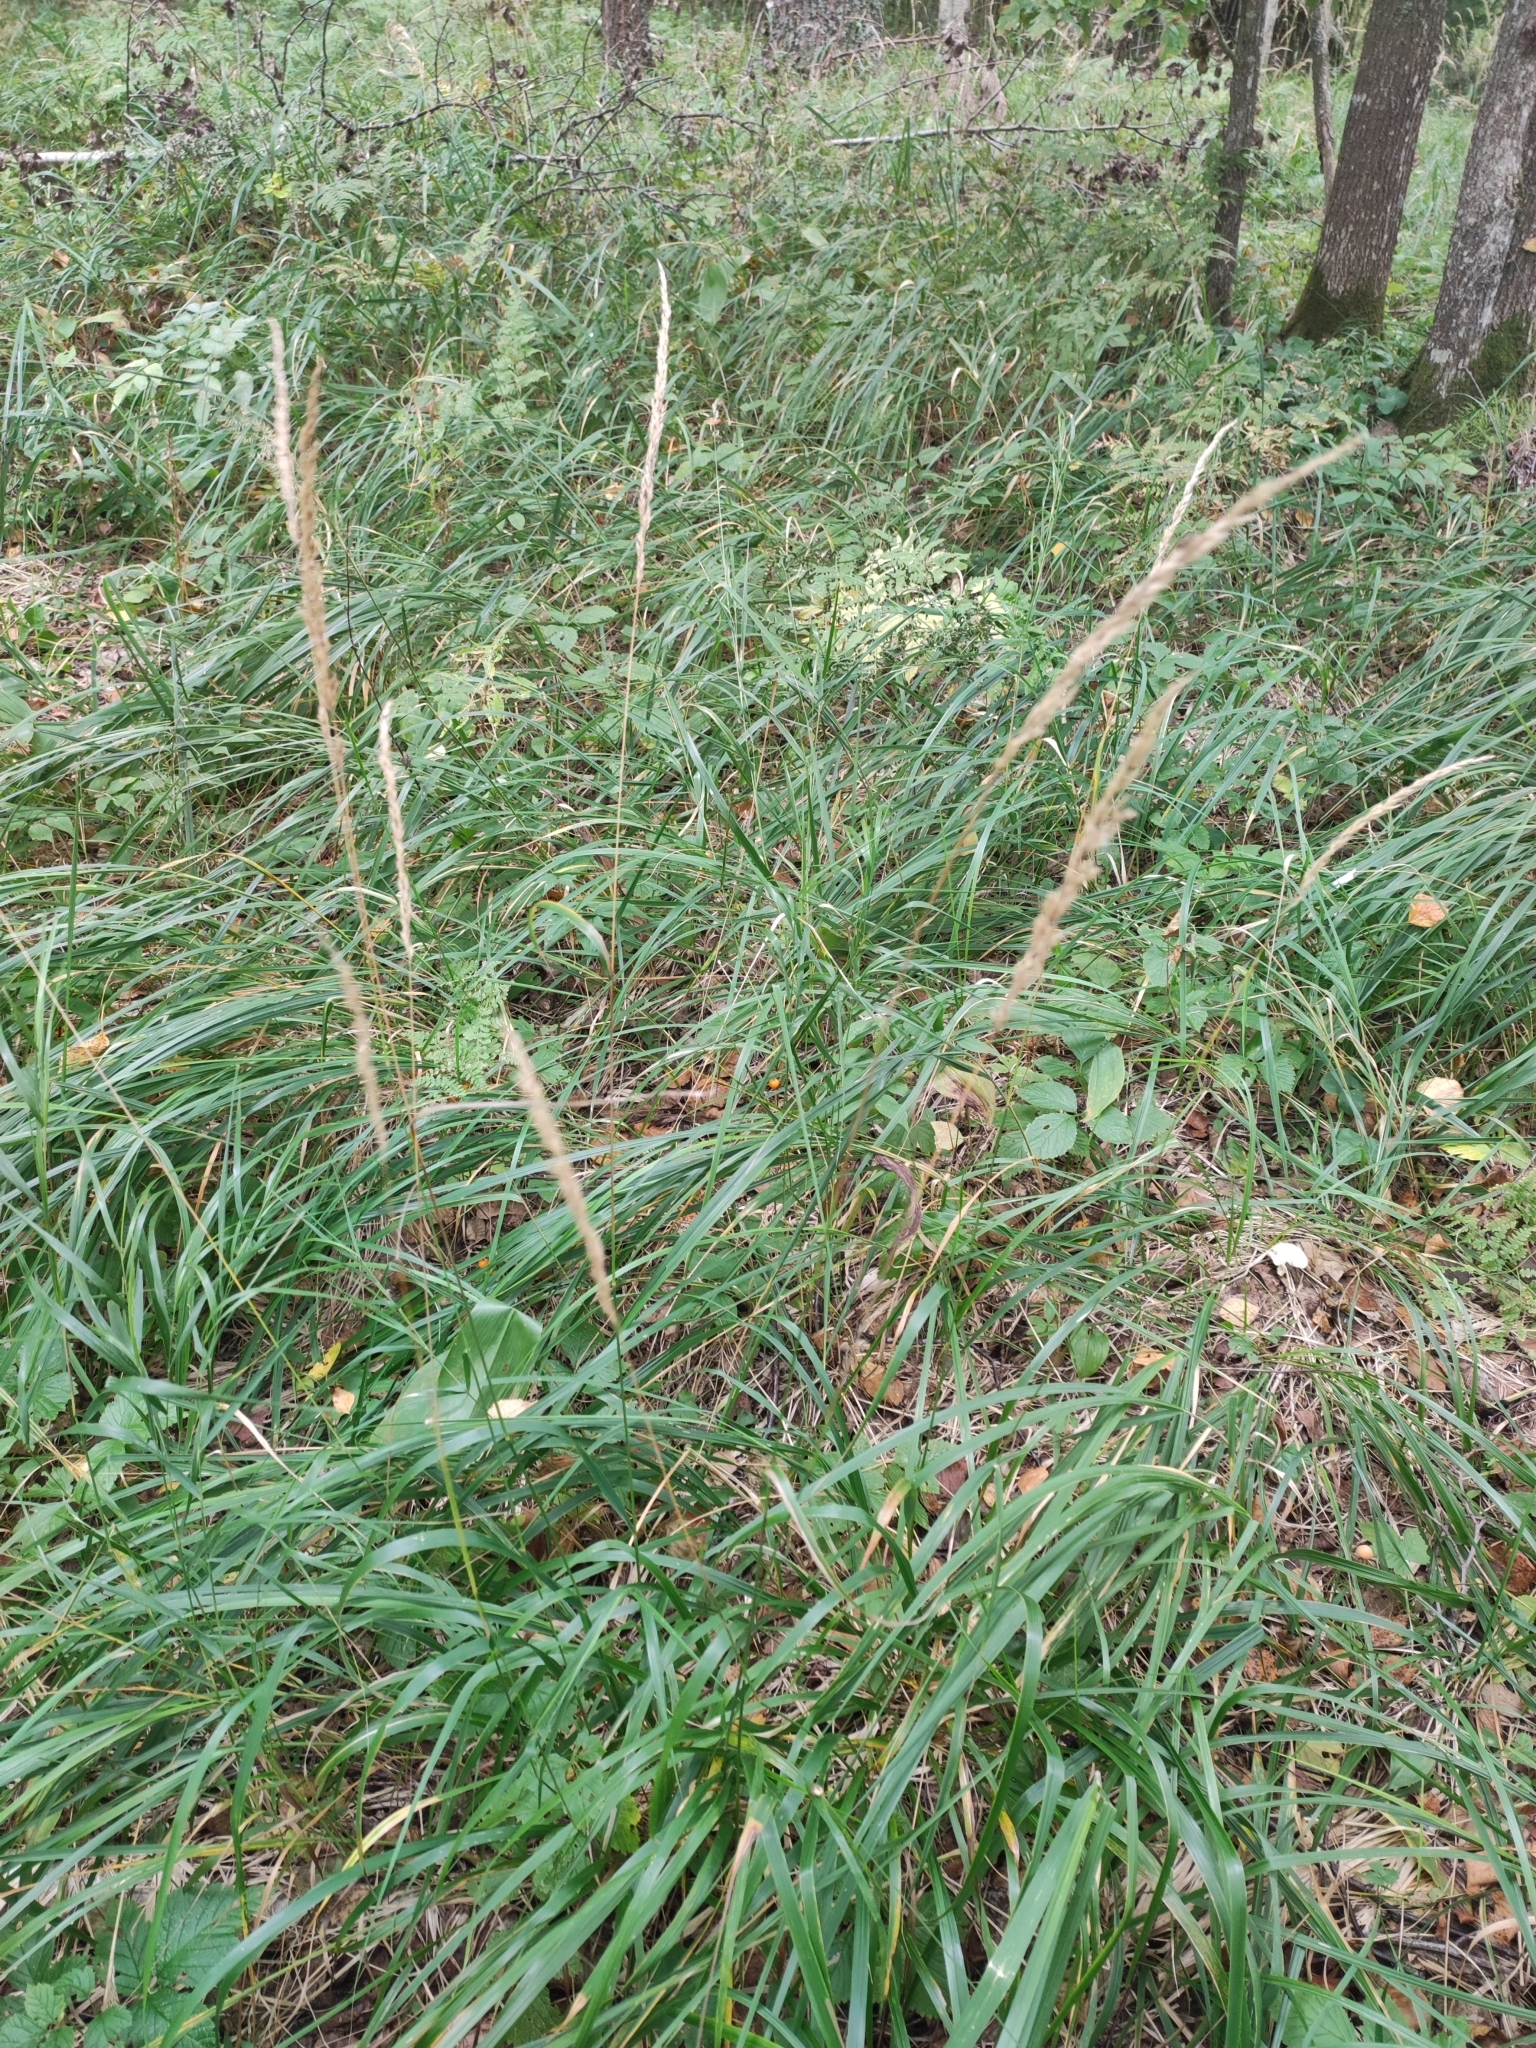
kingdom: Plantae
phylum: Tracheophyta
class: Liliopsida
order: Poales
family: Poaceae
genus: Calamagrostis
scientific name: Calamagrostis arundinacea
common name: Metskastik
